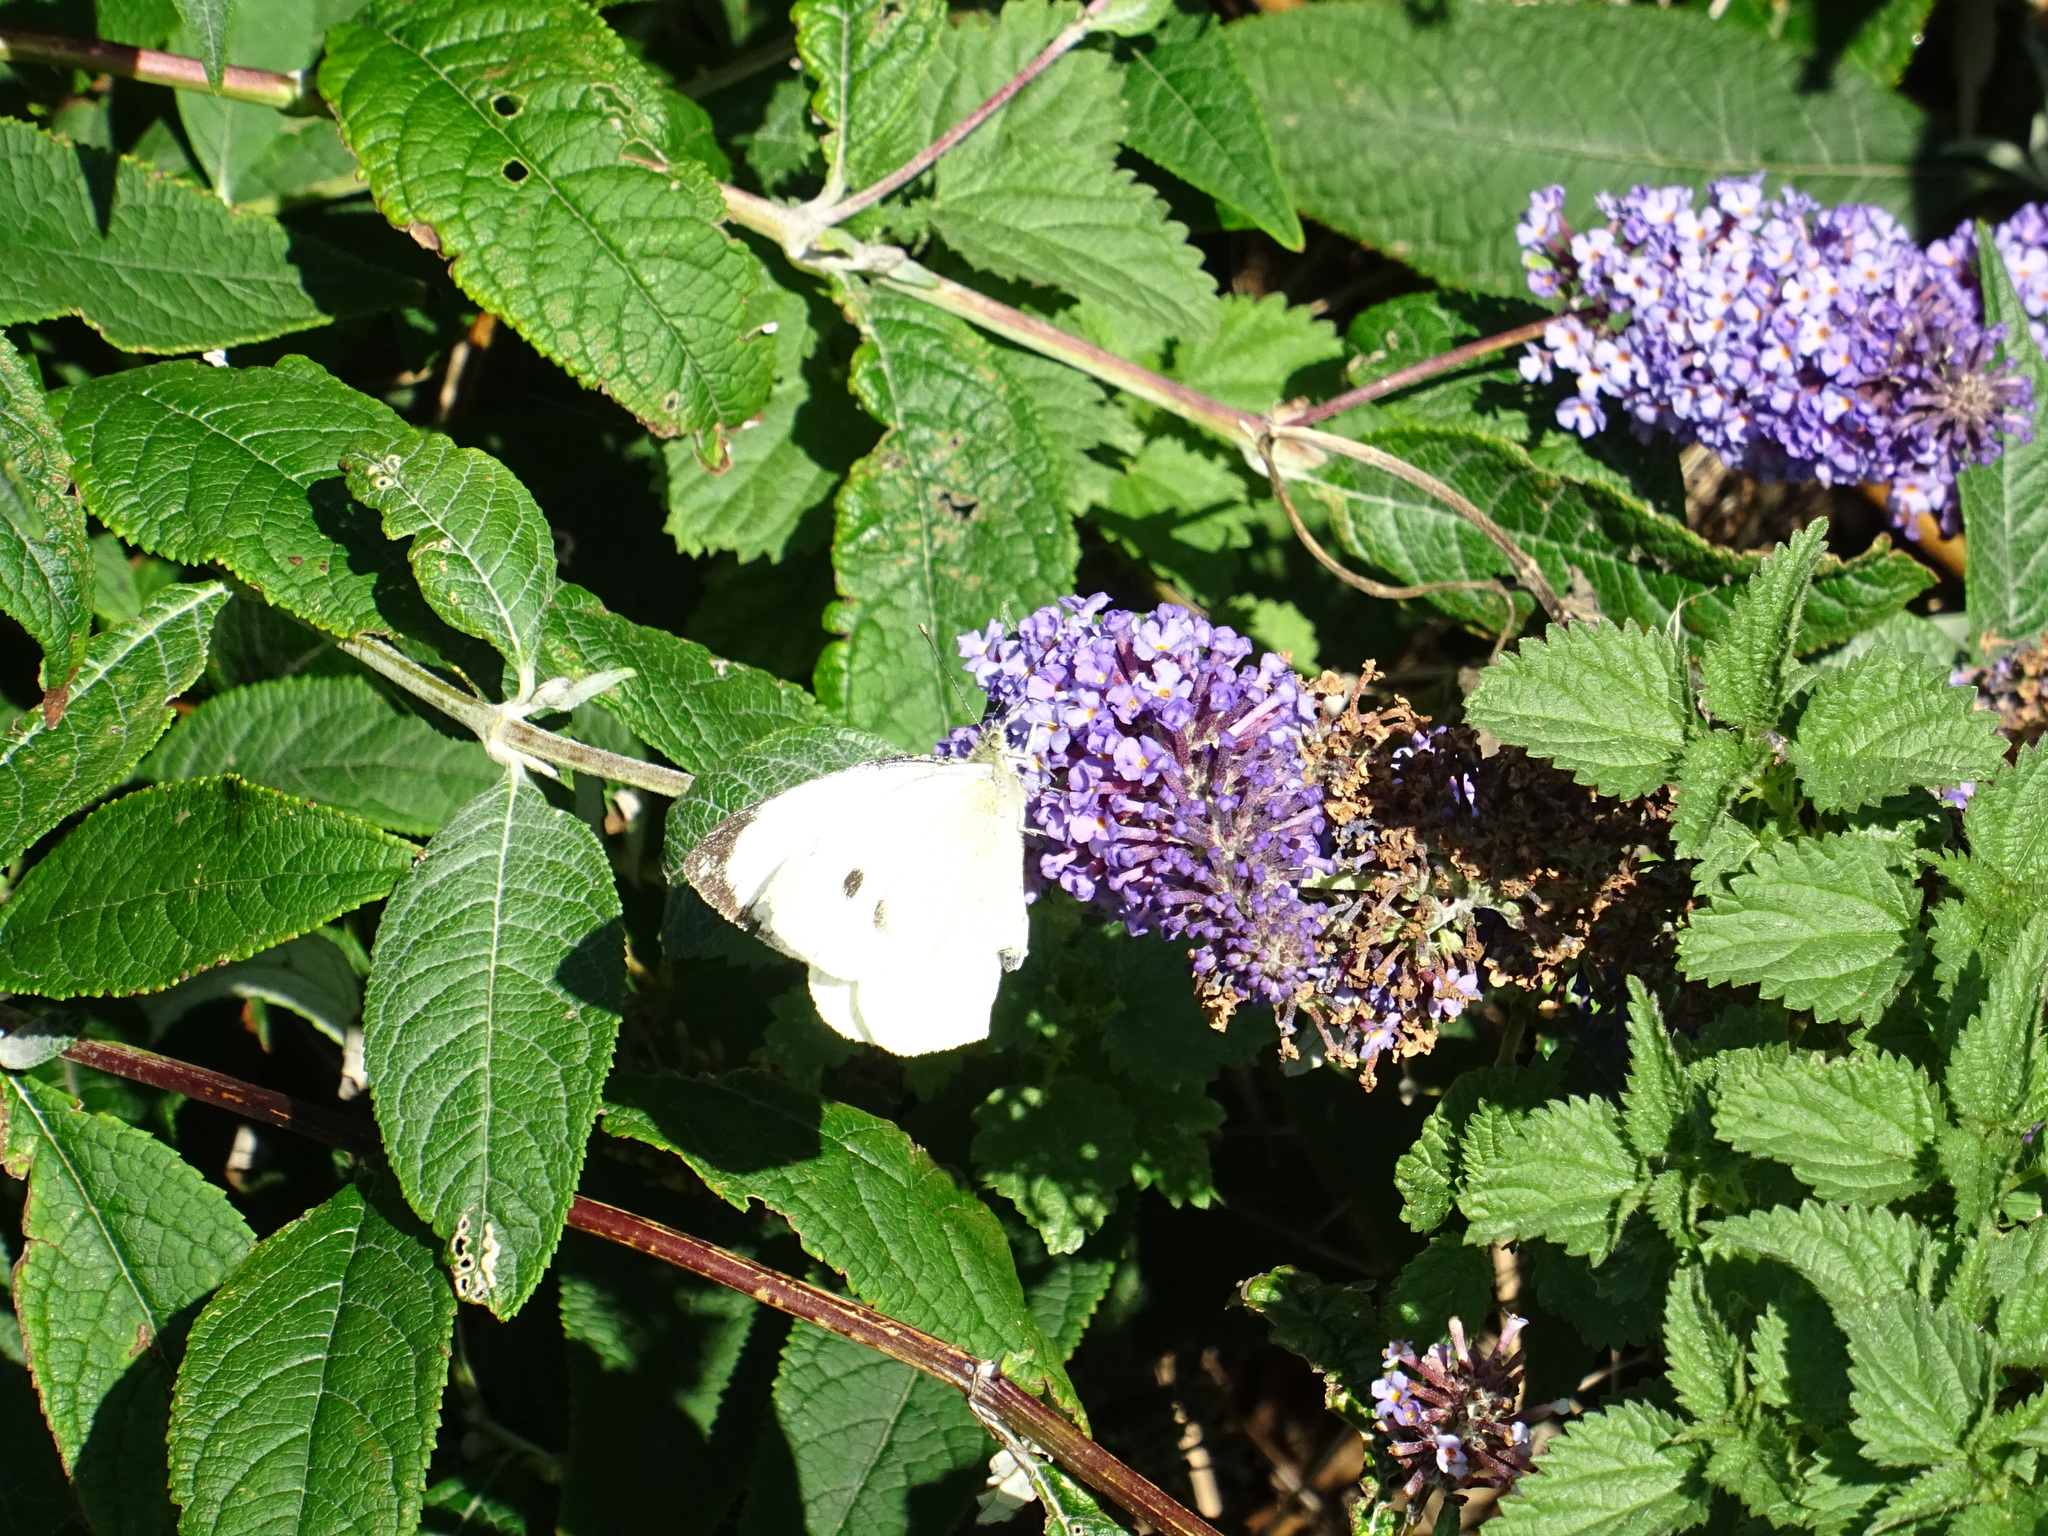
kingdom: Animalia
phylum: Arthropoda
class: Insecta
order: Lepidoptera
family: Pieridae
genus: Pieris
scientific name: Pieris brassicae
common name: Large white
